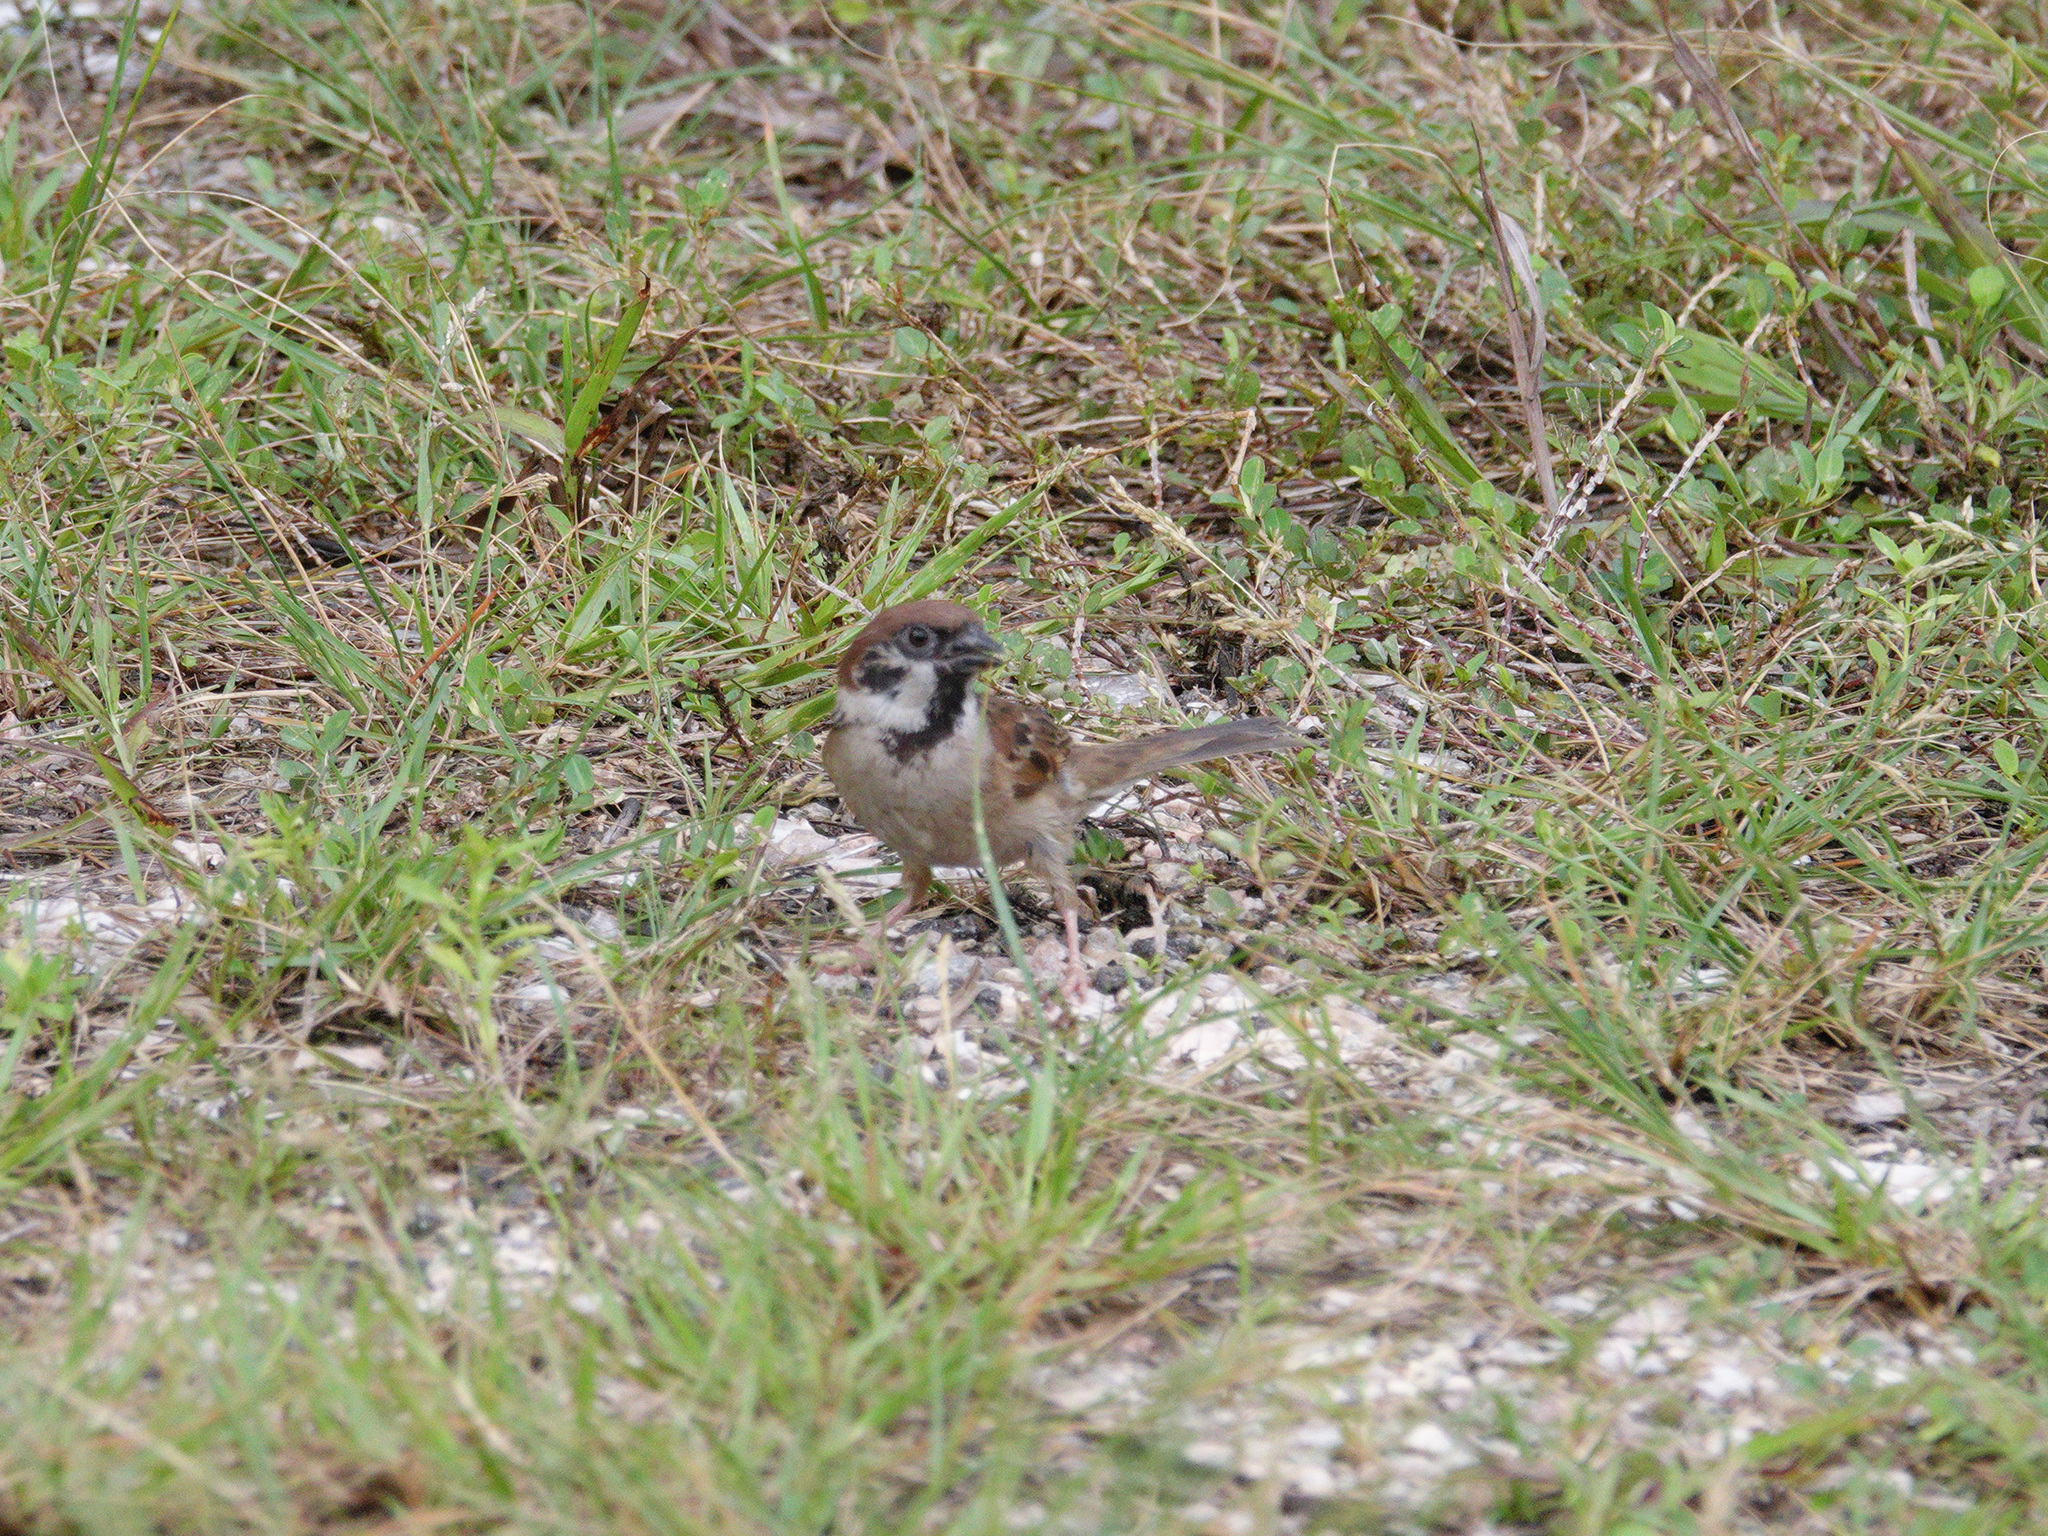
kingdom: Animalia
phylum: Chordata
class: Aves
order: Passeriformes
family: Passeridae
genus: Passer
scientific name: Passer montanus
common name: Eurasian tree sparrow
